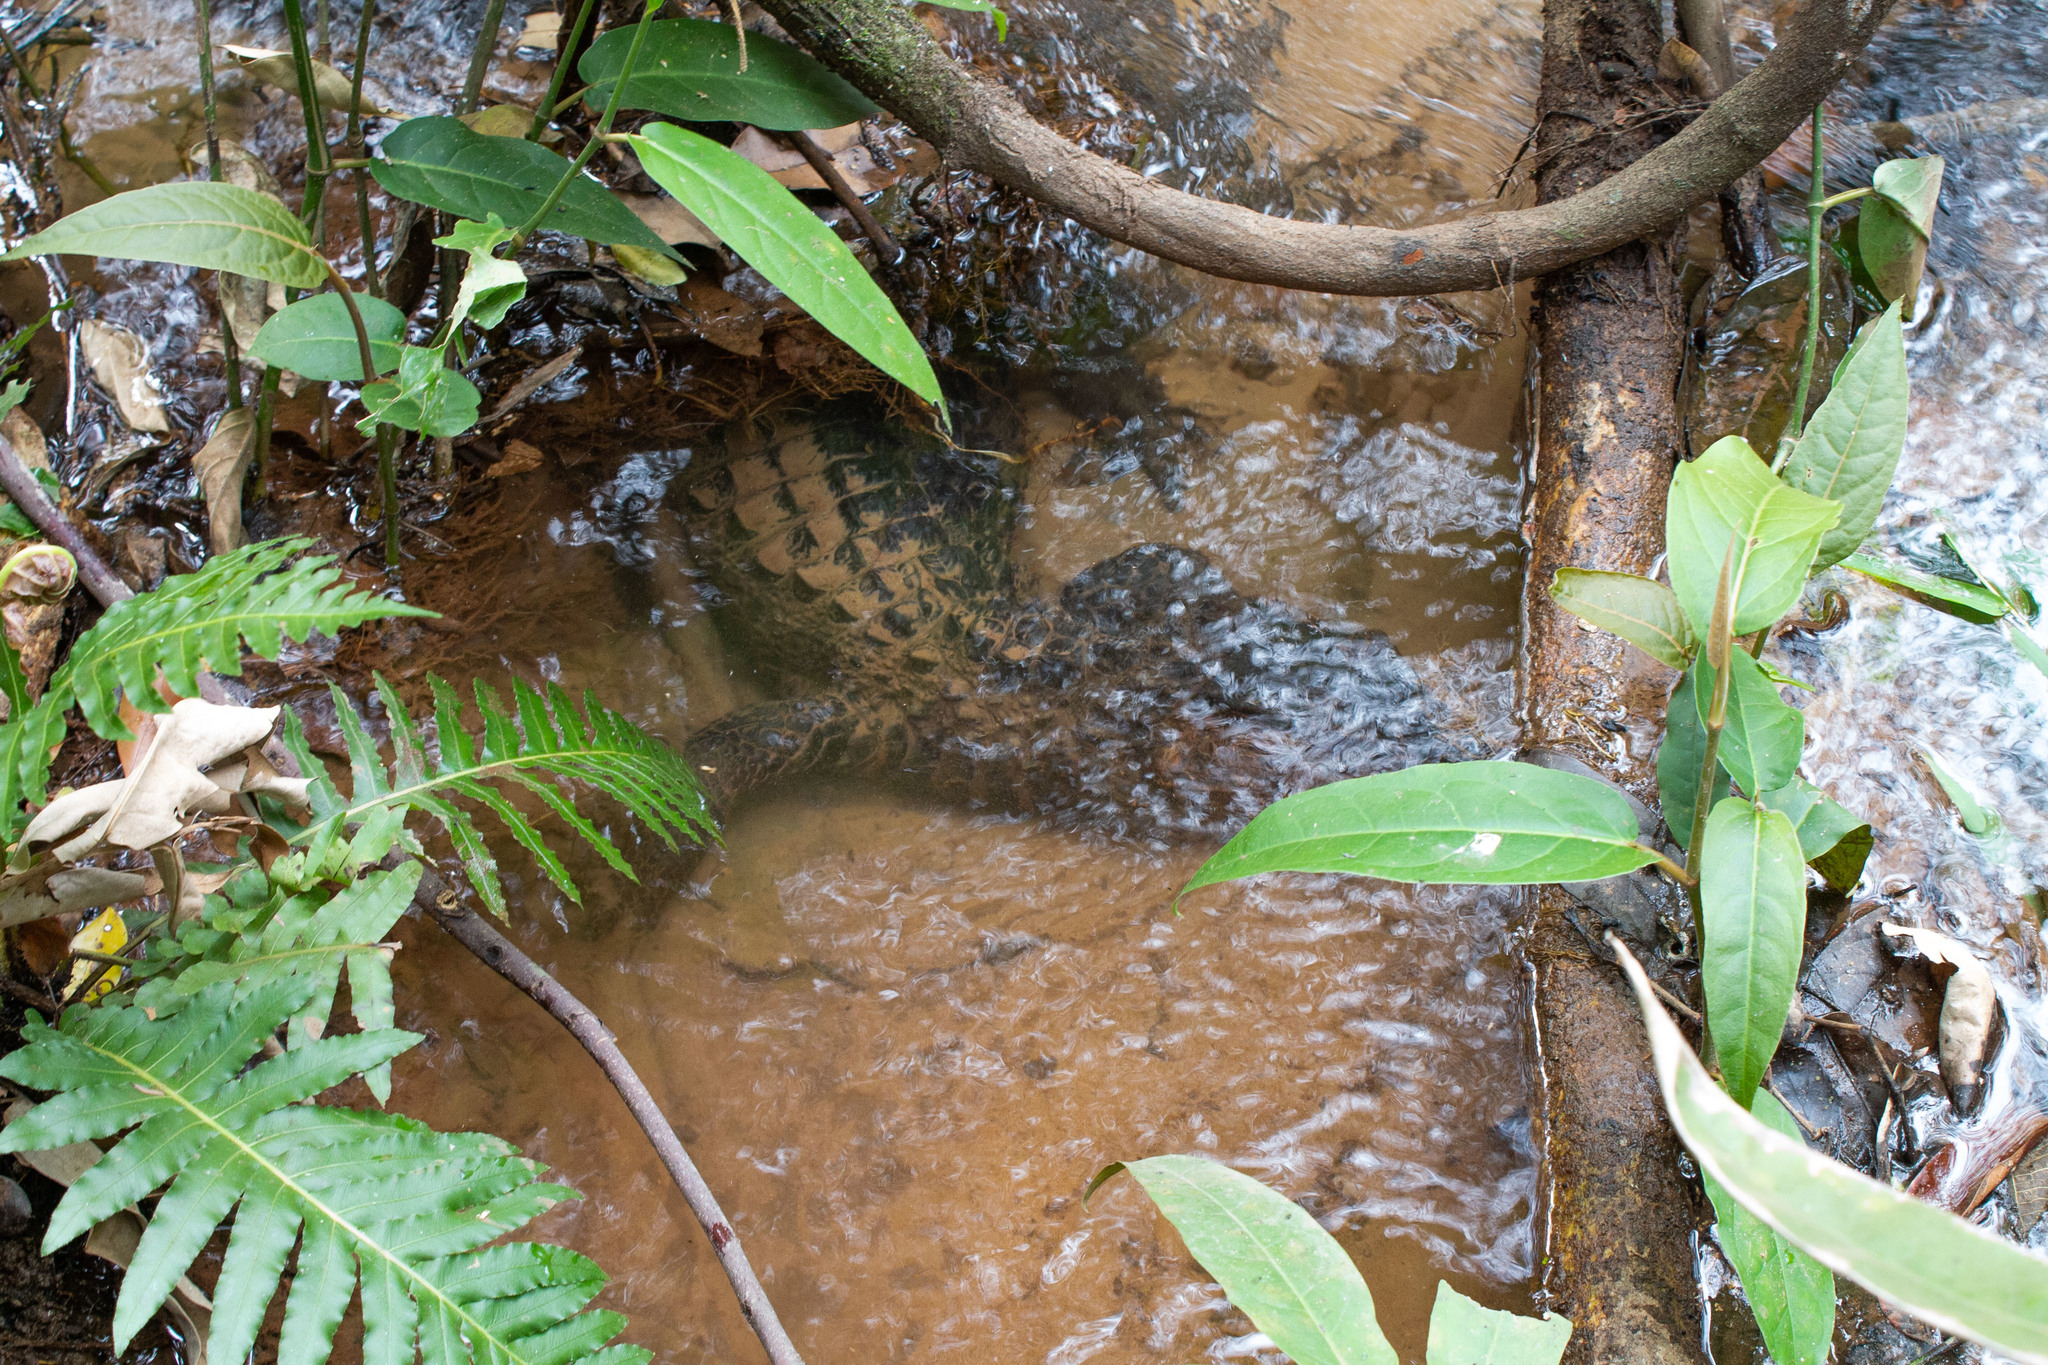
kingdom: Animalia
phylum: Chordata
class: Crocodylia
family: Alligatoridae
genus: Paleosuchus
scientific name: Paleosuchus palpebrosus
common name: Cuvier's smooth-fronted caiman
